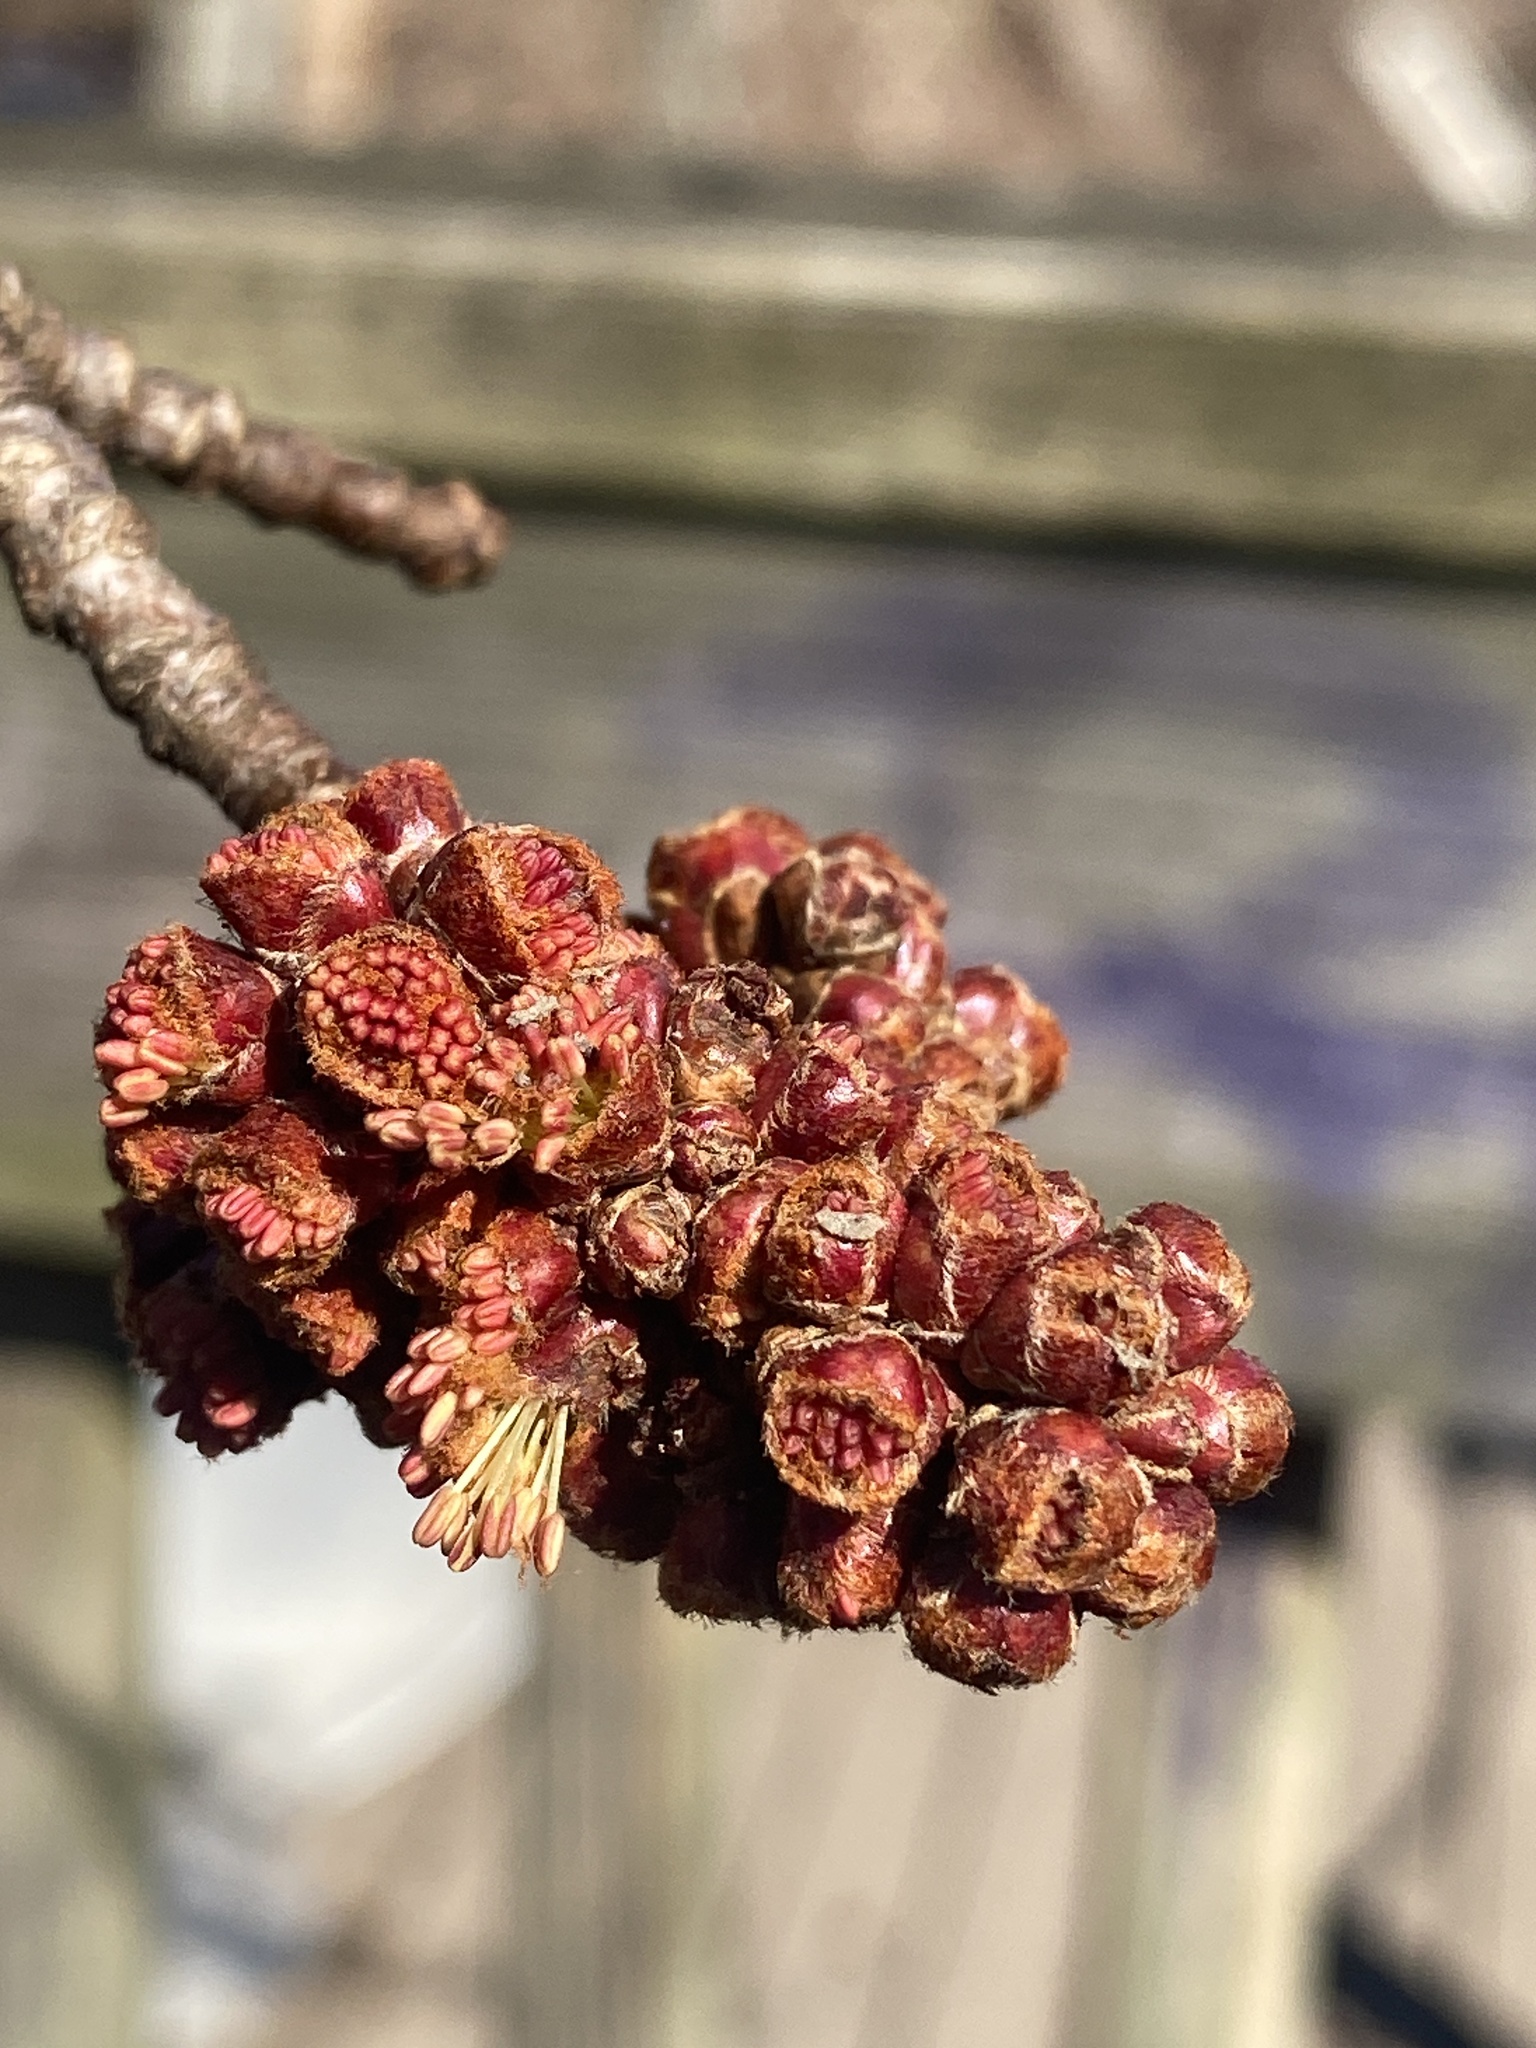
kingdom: Plantae
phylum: Tracheophyta
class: Magnoliopsida
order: Sapindales
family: Sapindaceae
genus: Acer
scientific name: Acer saccharinum
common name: Silver maple
